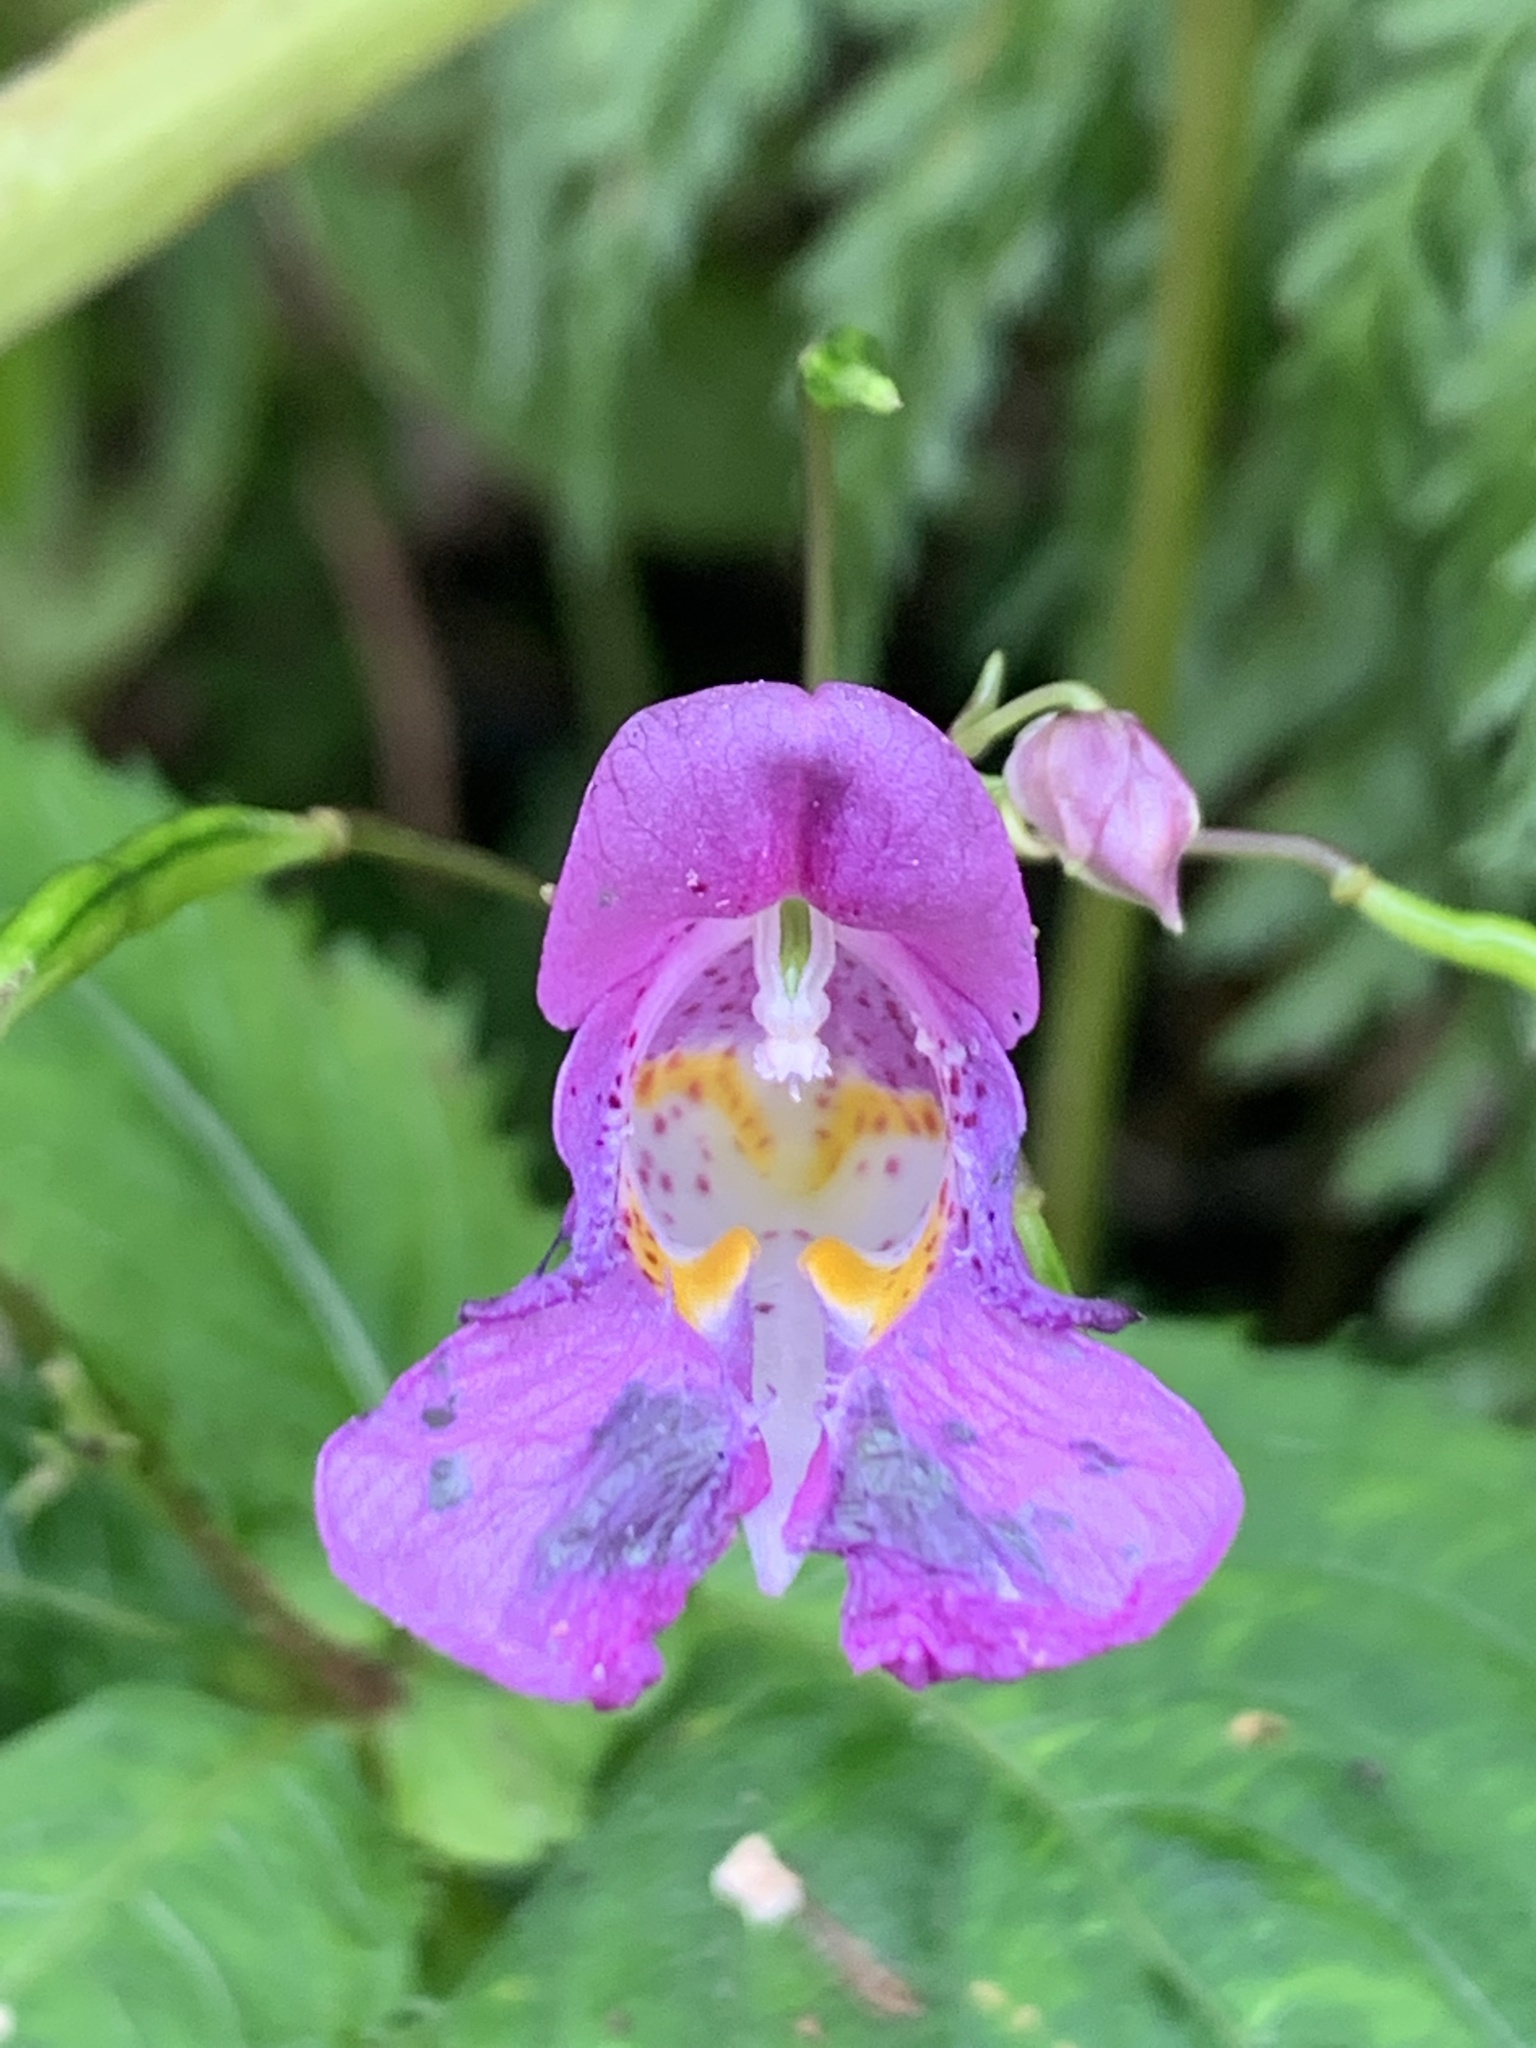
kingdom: Plantae
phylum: Tracheophyta
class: Magnoliopsida
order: Ericales
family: Balsaminaceae
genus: Impatiens
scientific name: Impatiens textorii
